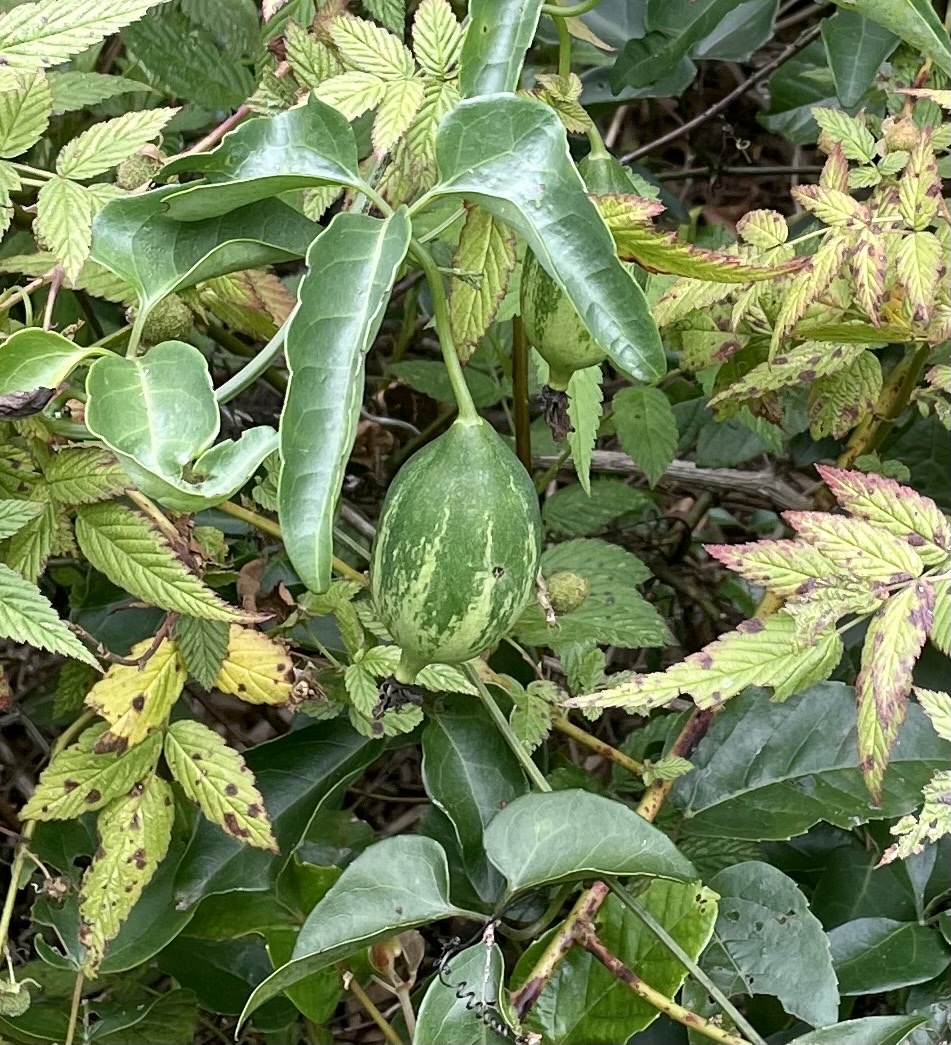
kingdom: Plantae
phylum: Tracheophyta
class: Magnoliopsida
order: Cucurbitales
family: Cucurbitaceae
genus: Nothoalsomitra
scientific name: Nothoalsomitra suberosa
